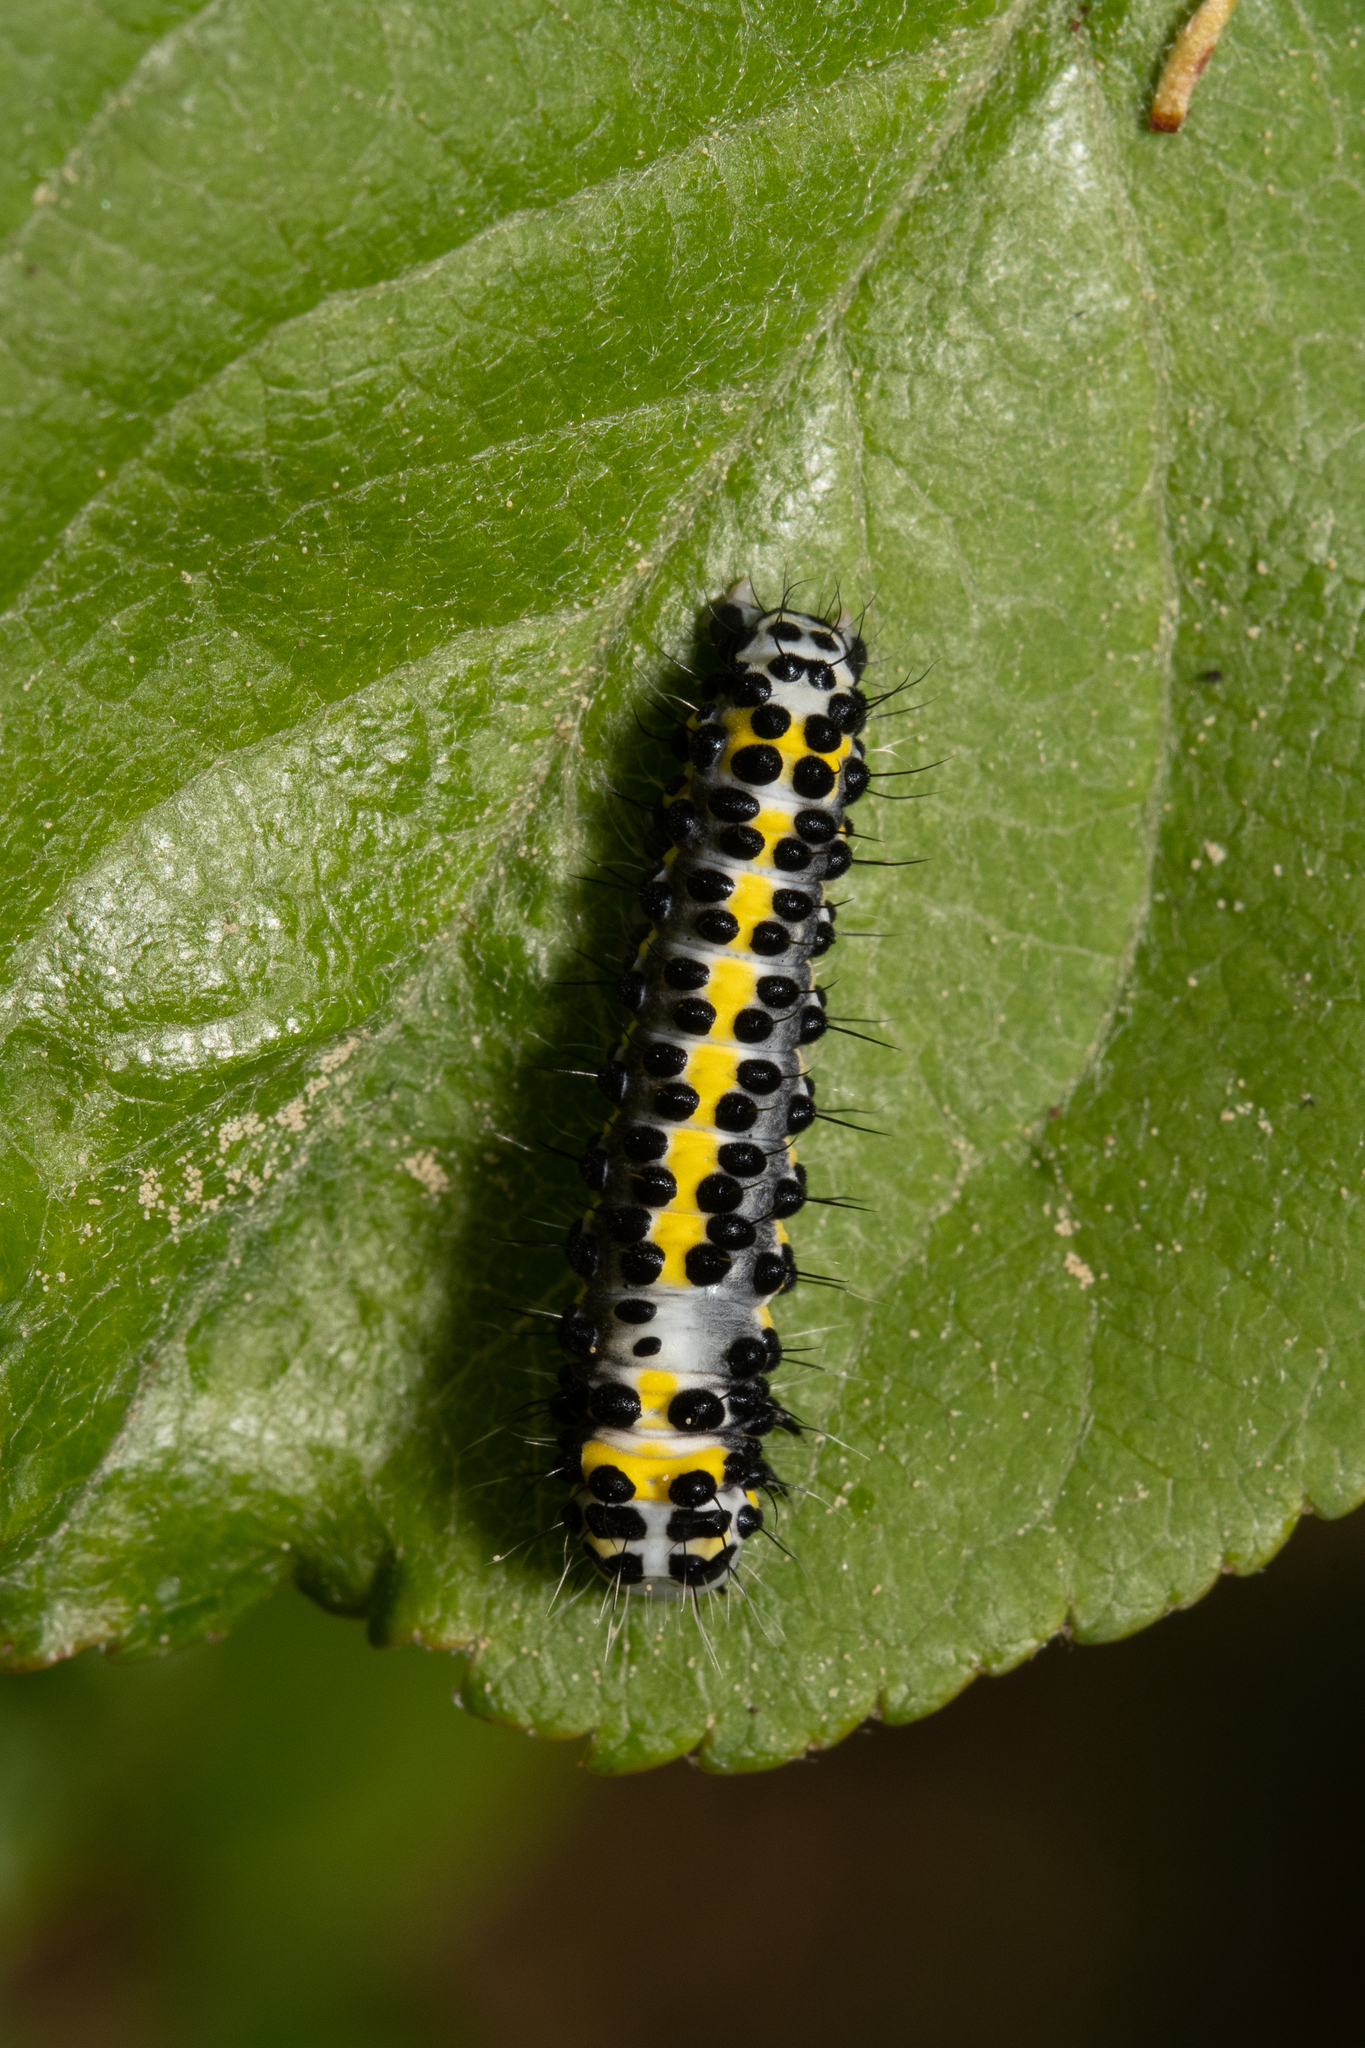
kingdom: Animalia
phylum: Arthropoda
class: Insecta
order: Lepidoptera
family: Noctuidae
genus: Diloba
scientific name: Diloba caeruleocephala
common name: Figure of eight
